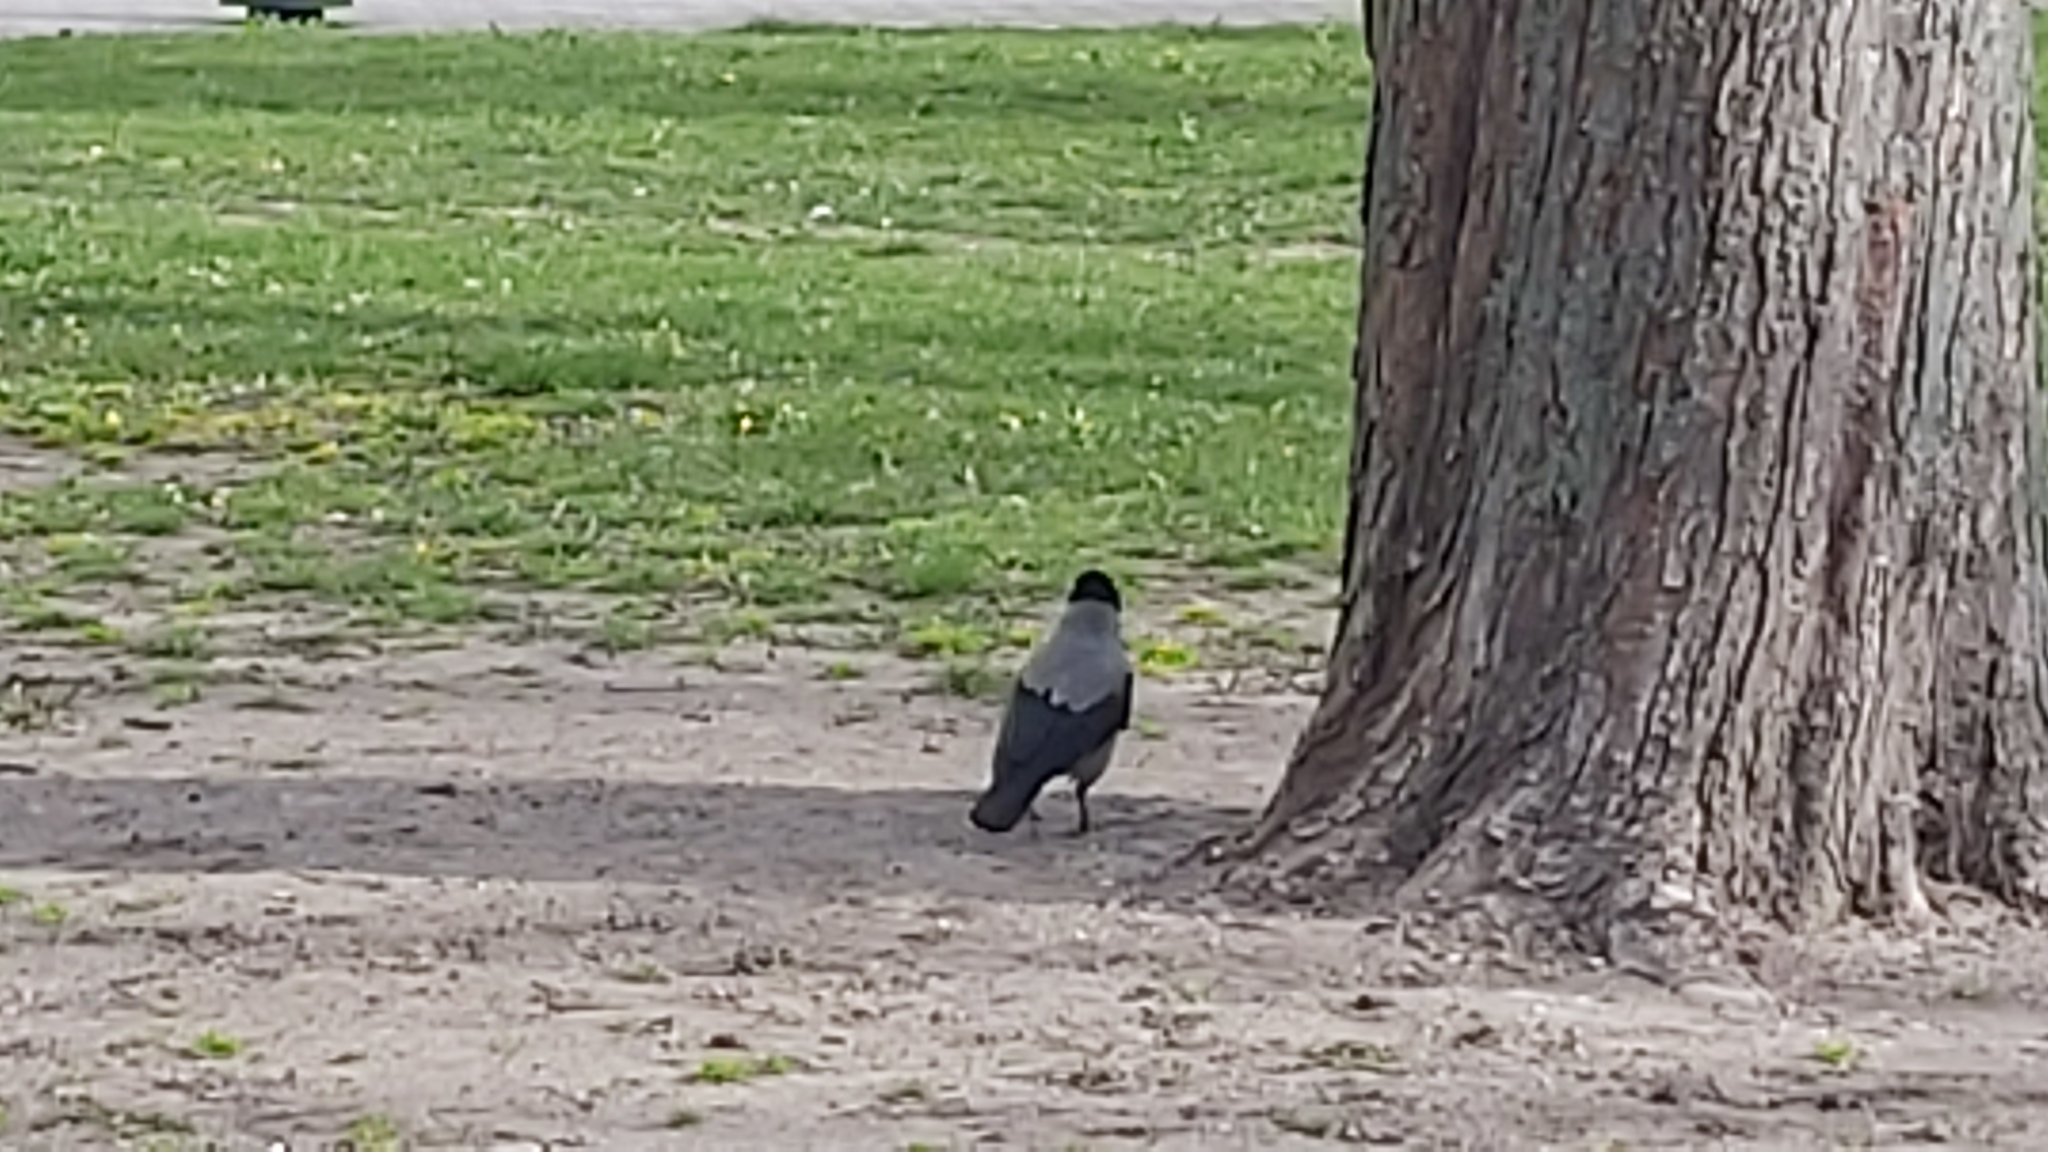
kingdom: Animalia
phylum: Chordata
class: Aves
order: Passeriformes
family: Corvidae
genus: Corvus
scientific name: Corvus cornix
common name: Hooded crow
